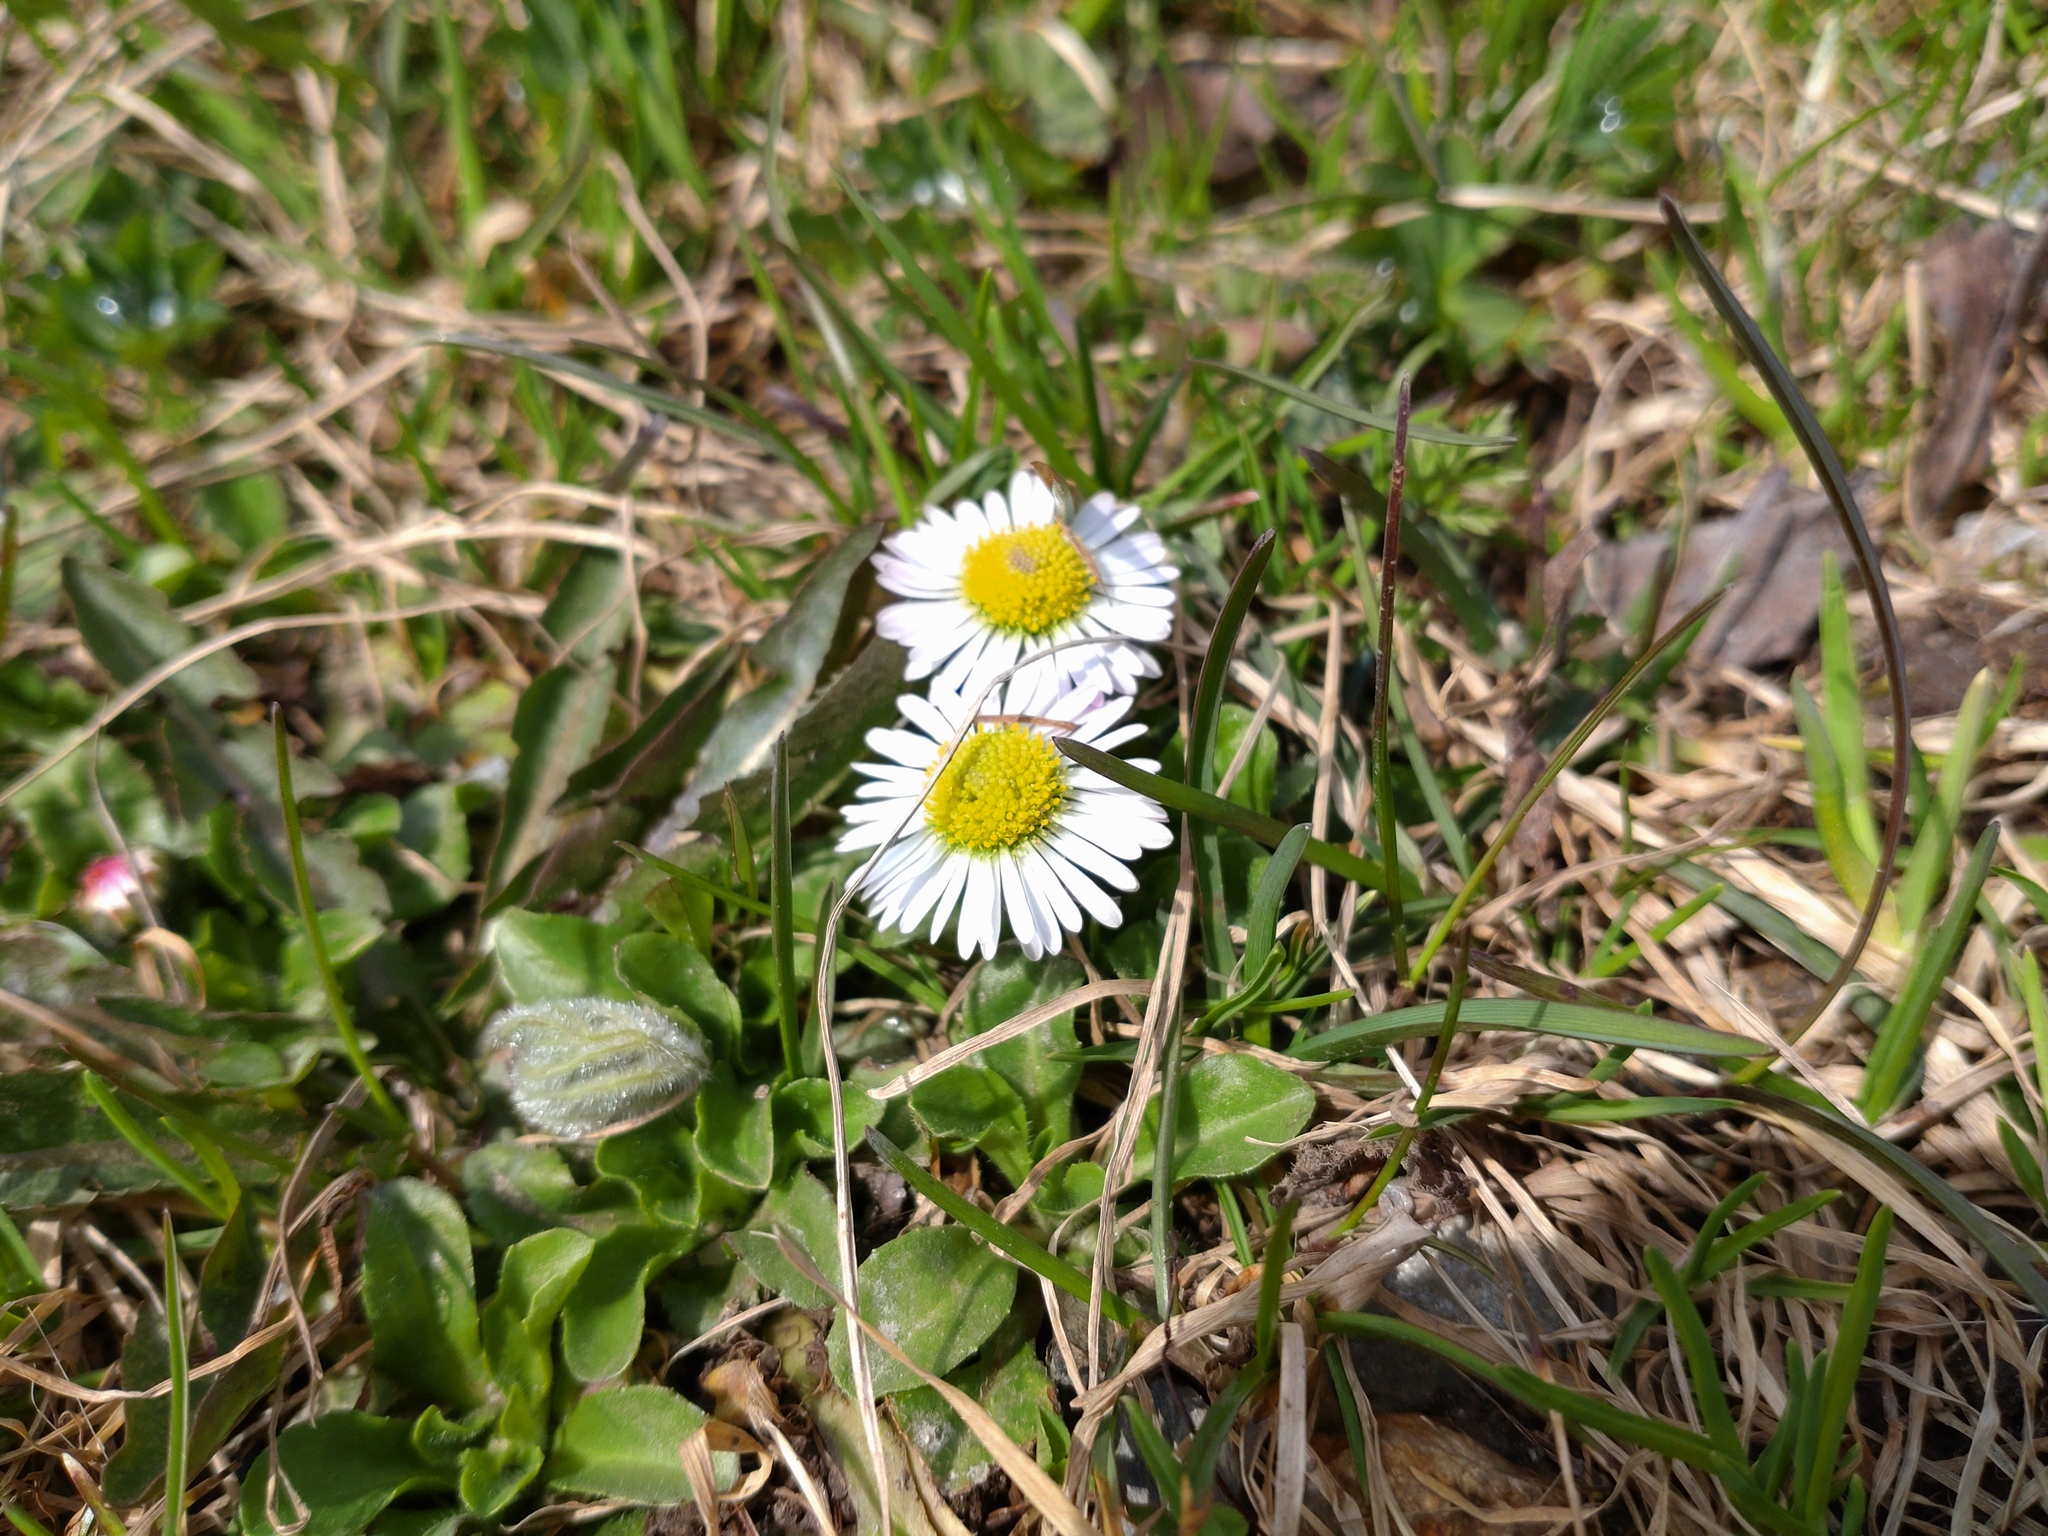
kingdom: Plantae
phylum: Tracheophyta
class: Magnoliopsida
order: Asterales
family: Asteraceae
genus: Bellis
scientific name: Bellis perennis
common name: Lawndaisy
